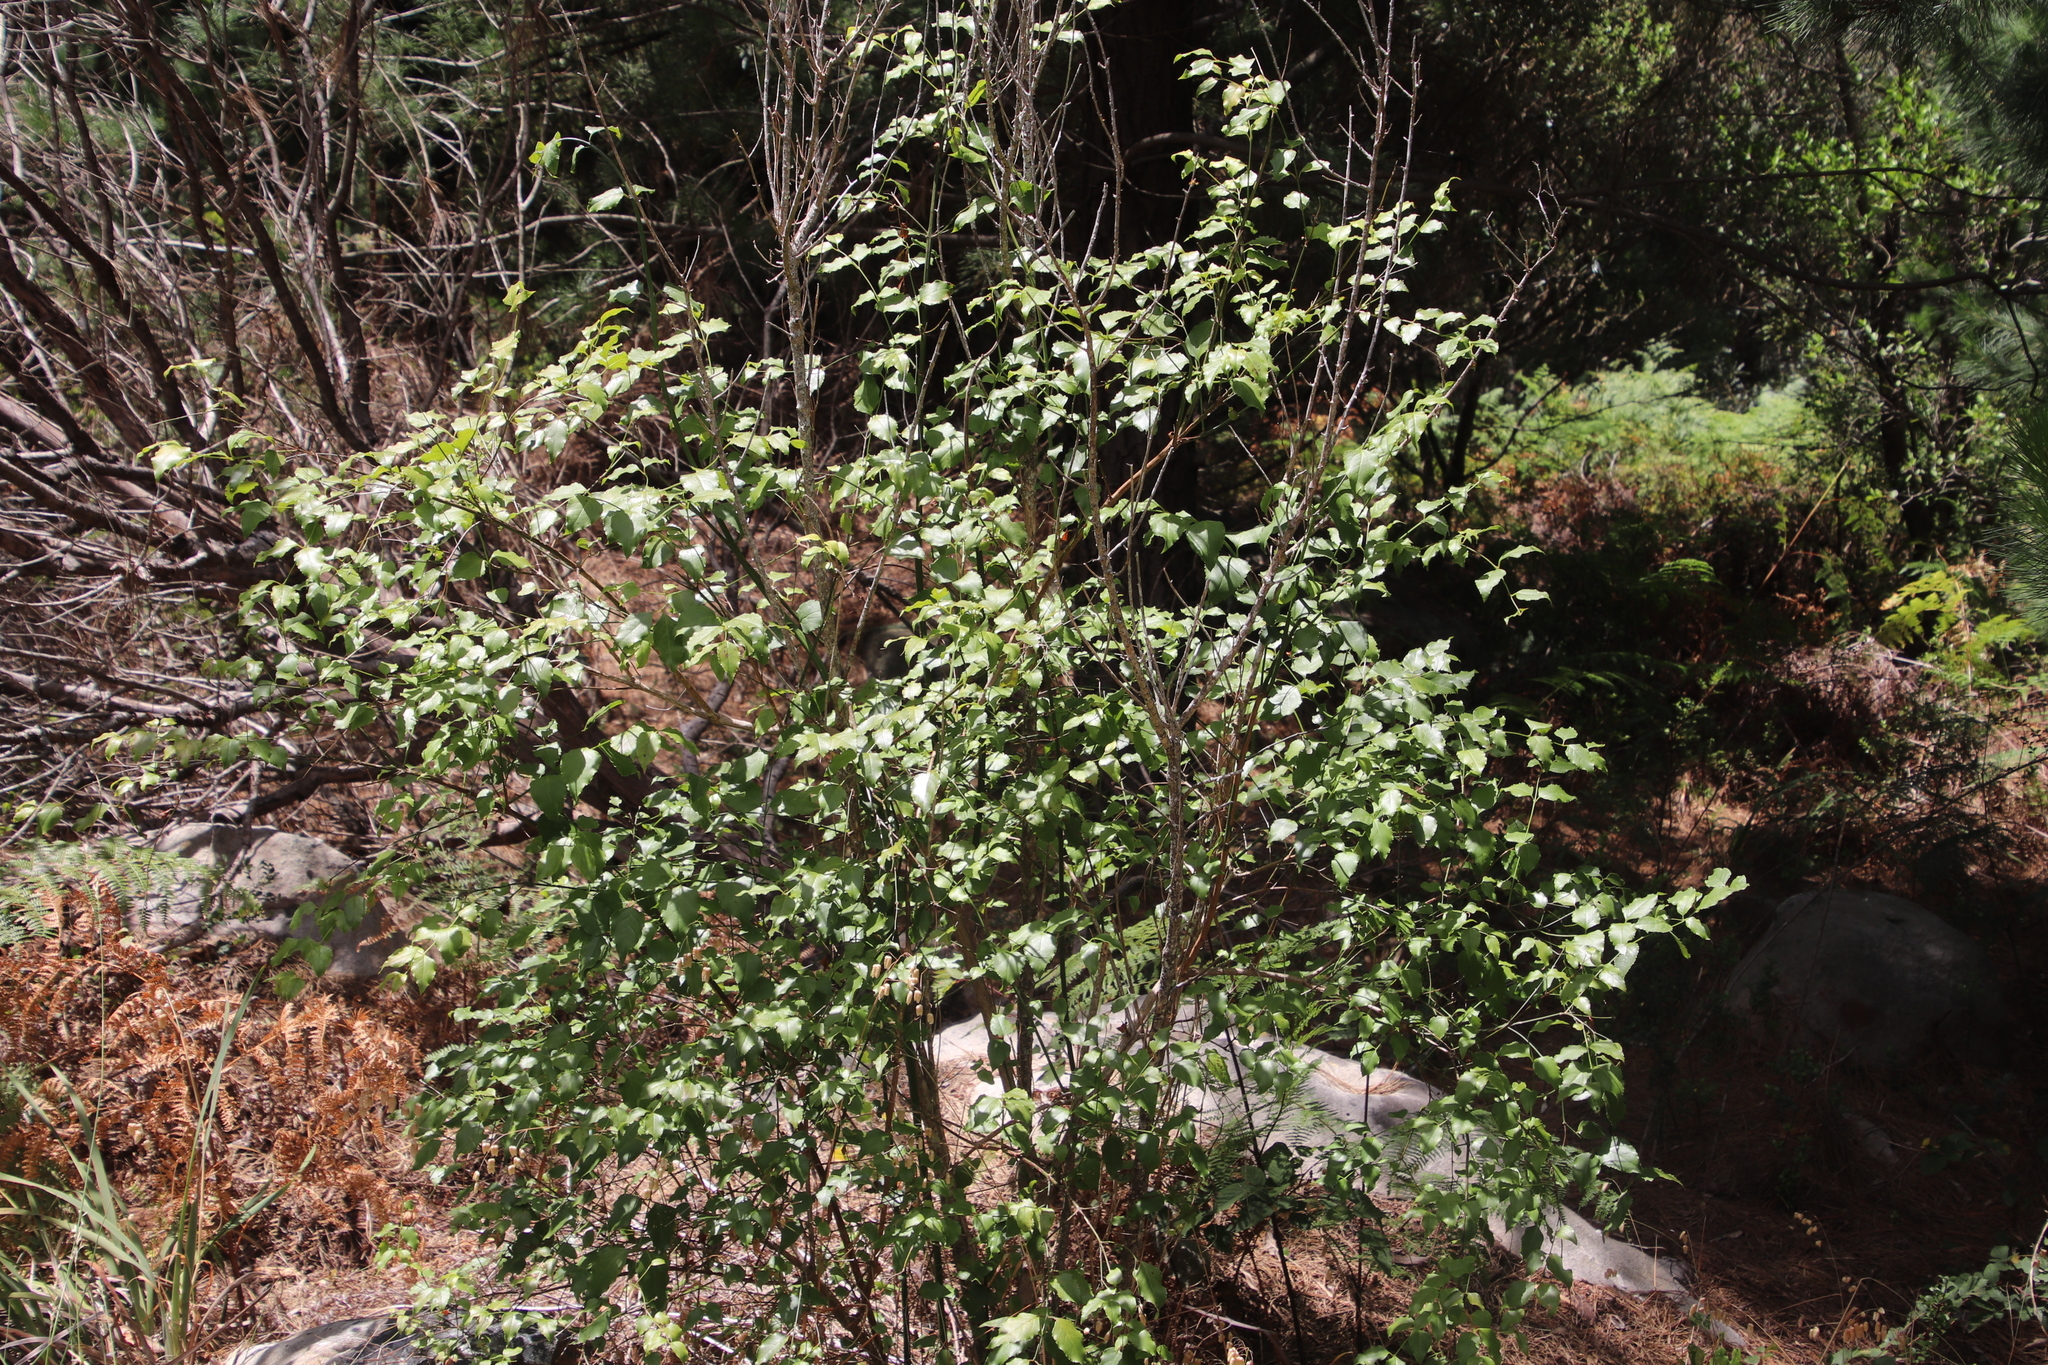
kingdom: Plantae
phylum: Tracheophyta
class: Magnoliopsida
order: Lamiales
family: Stilbaceae
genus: Halleria
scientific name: Halleria lucida
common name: Tree fuschia
